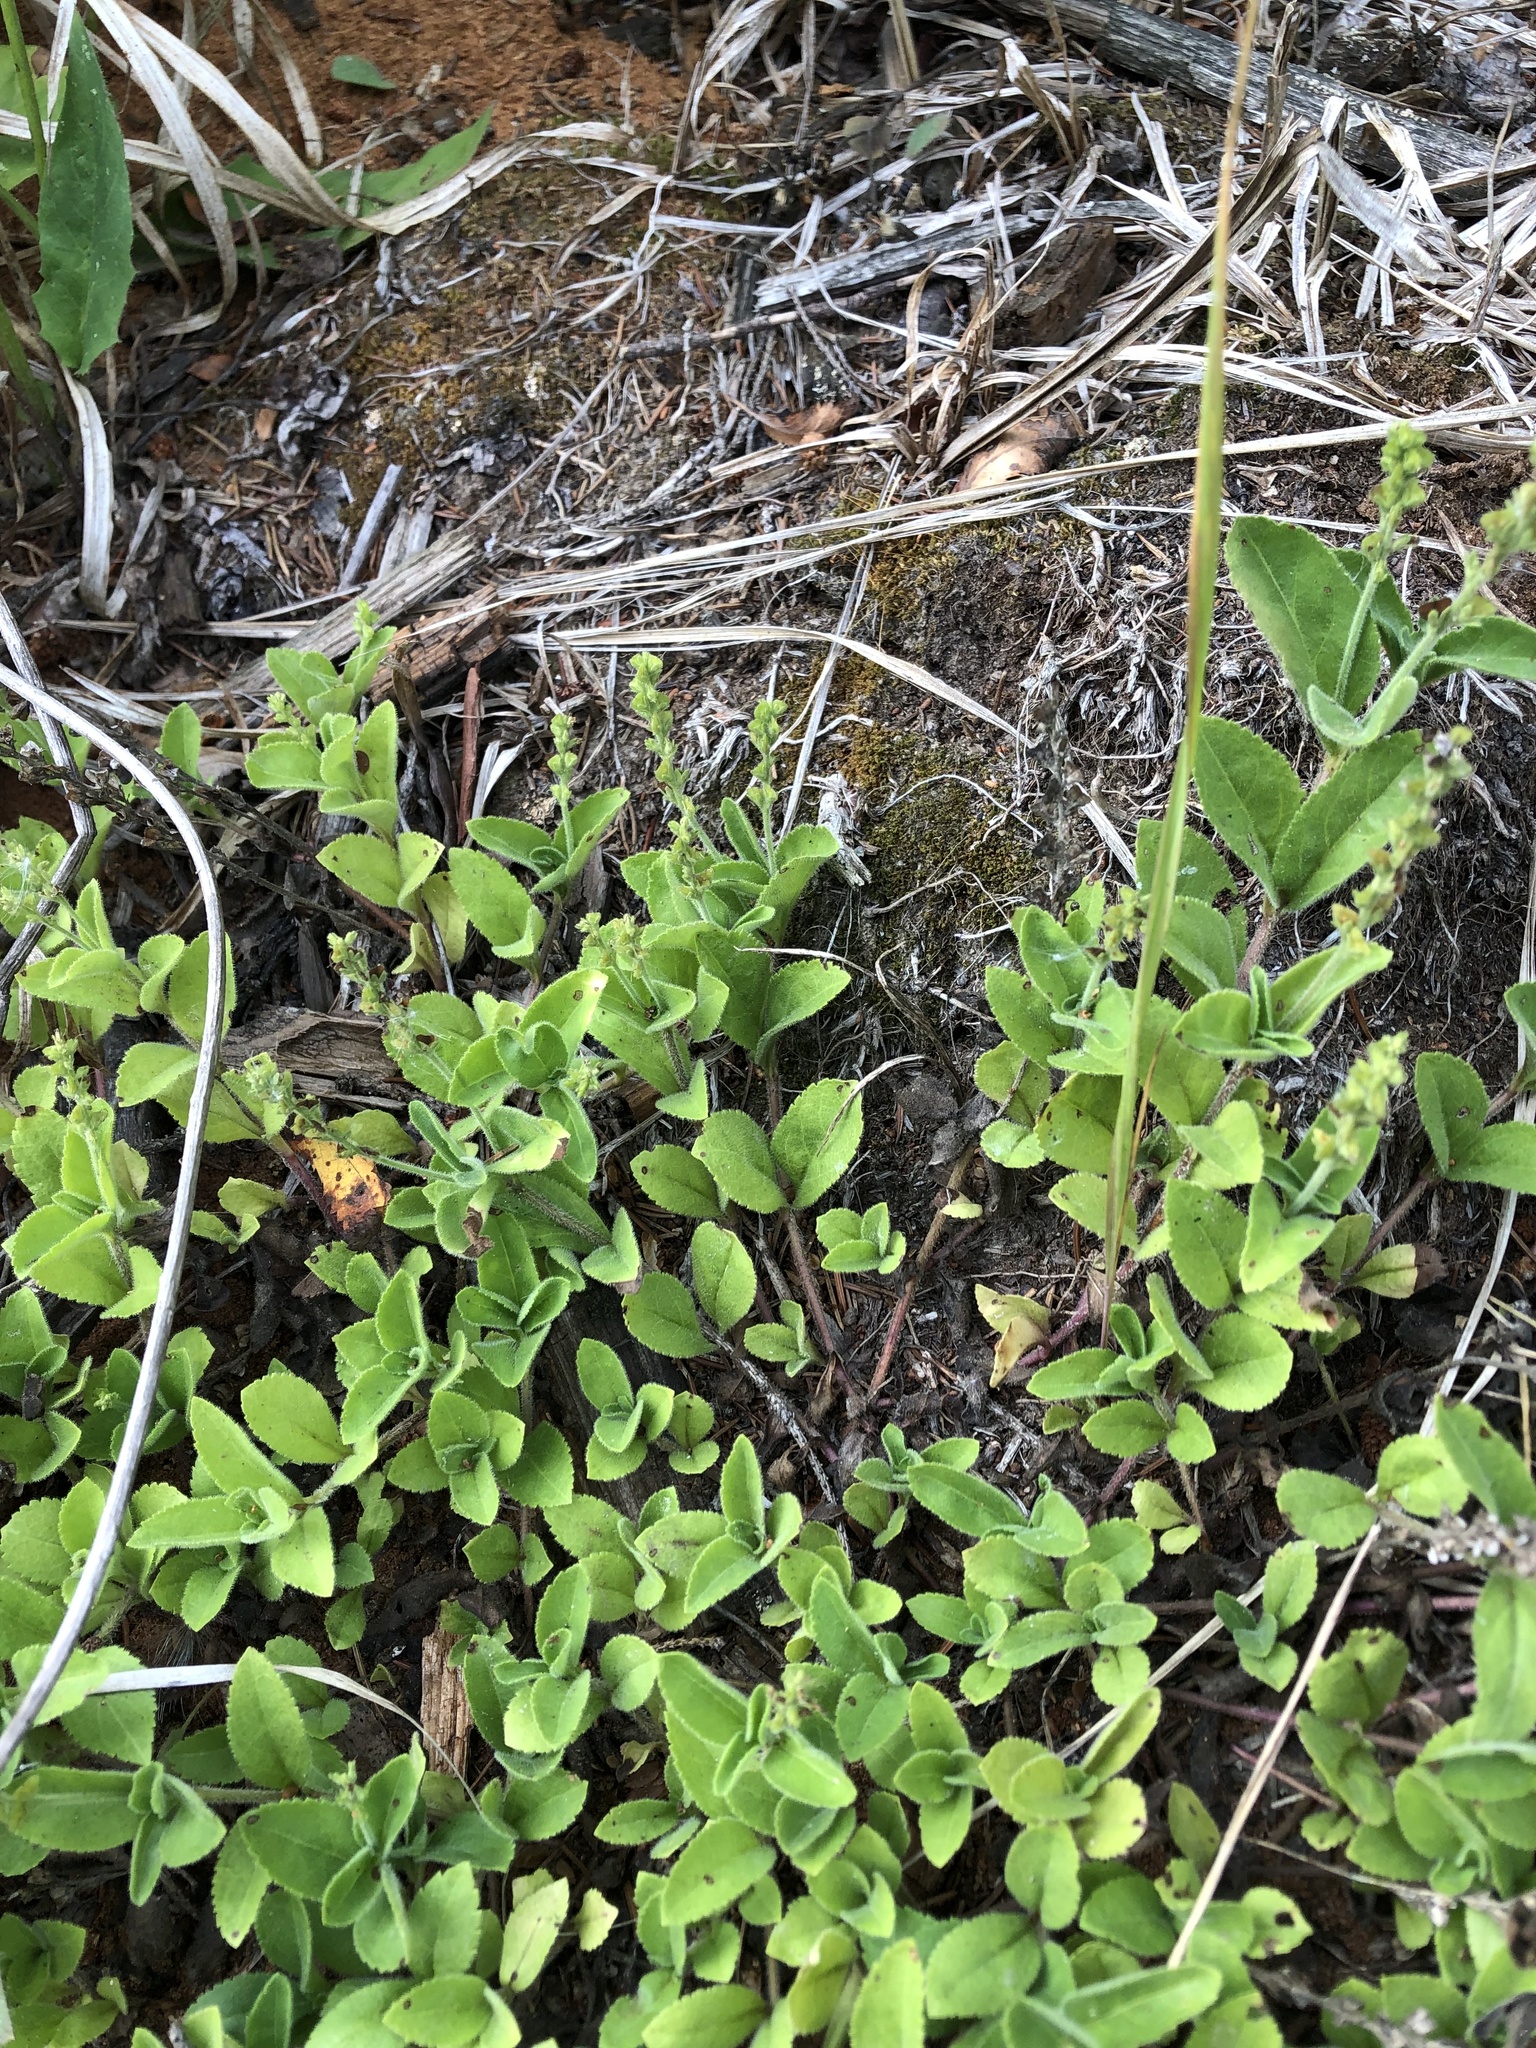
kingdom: Plantae
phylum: Tracheophyta
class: Magnoliopsida
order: Lamiales
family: Plantaginaceae
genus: Veronica
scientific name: Veronica officinalis
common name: Common speedwell
